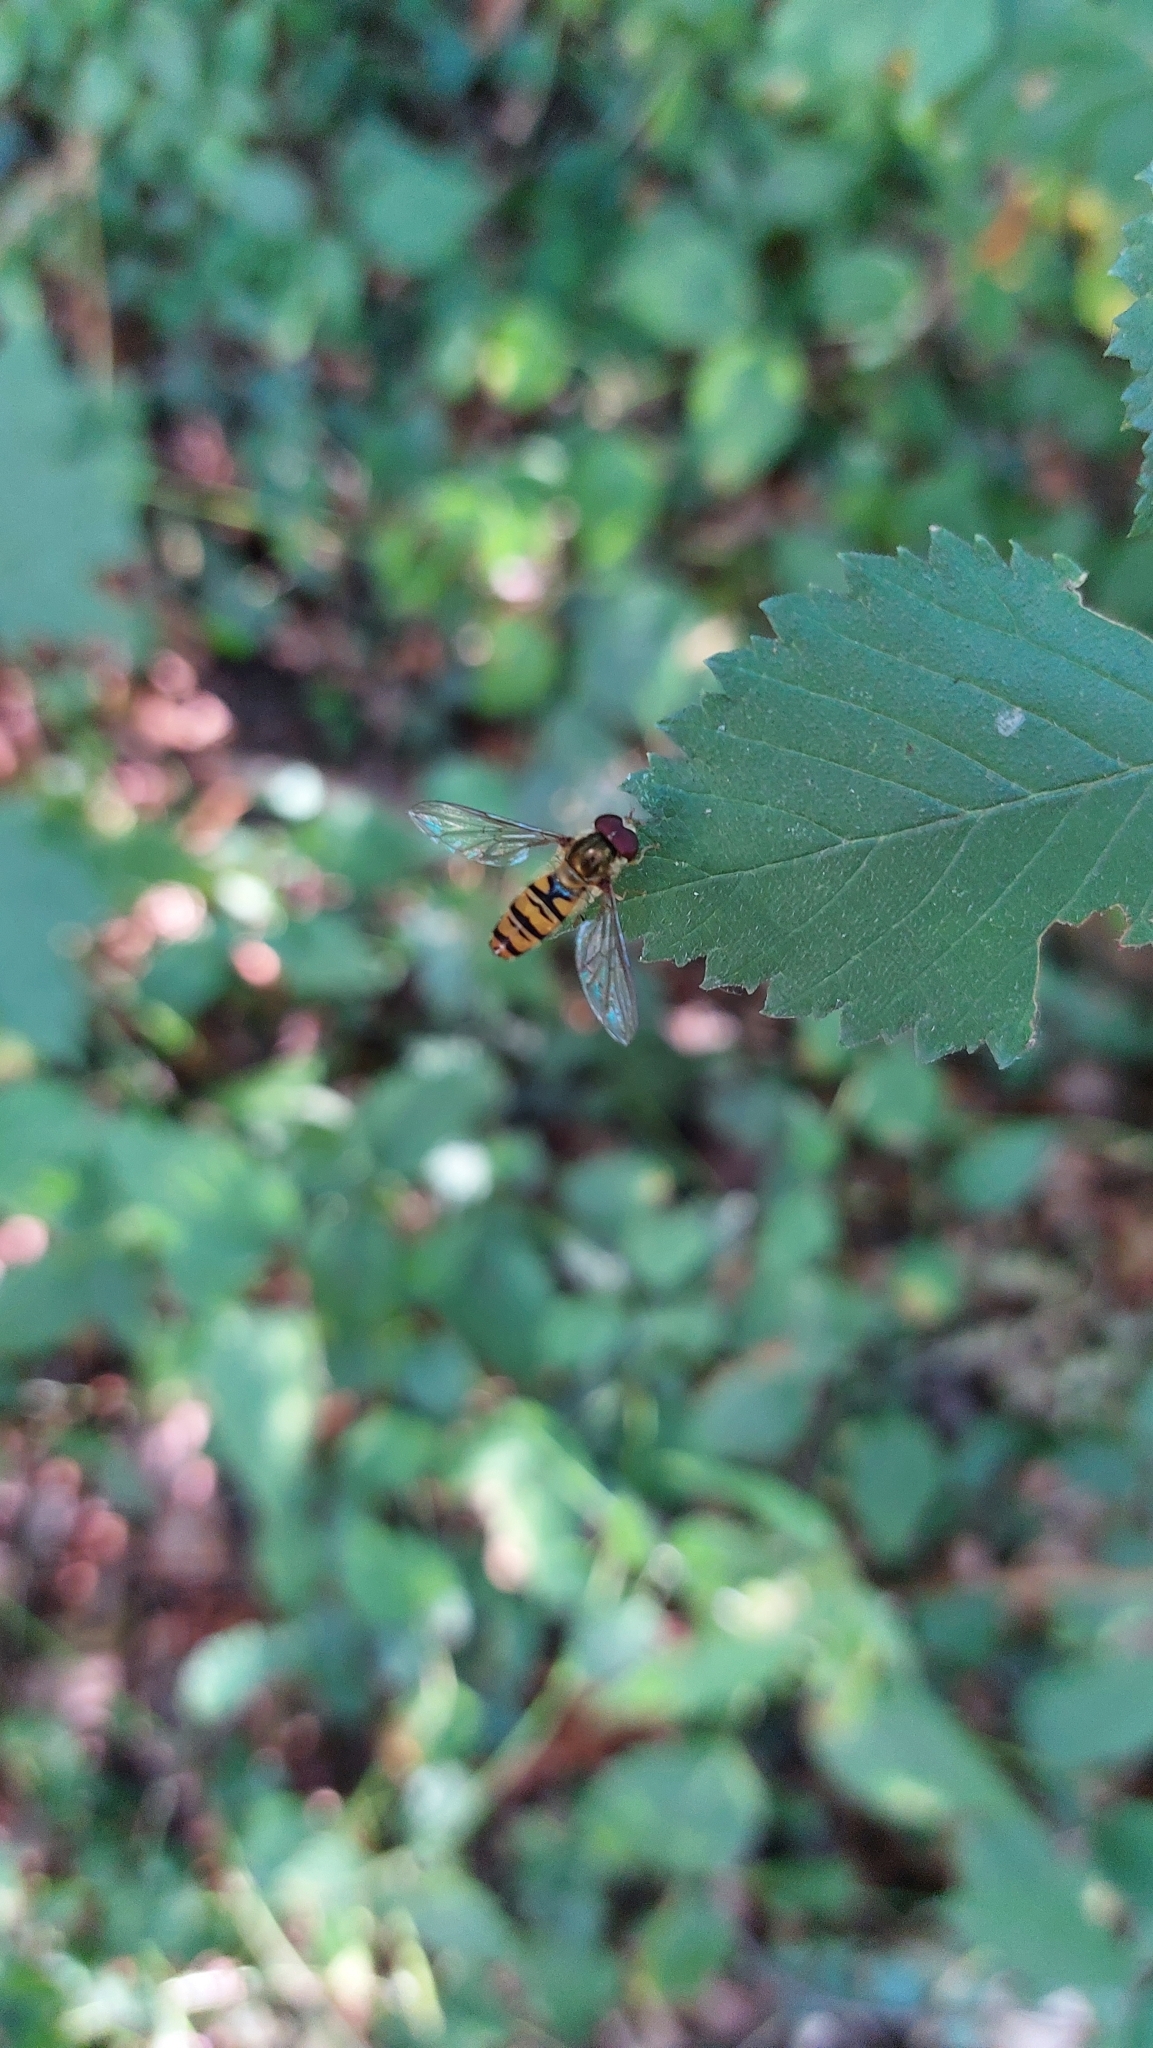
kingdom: Animalia
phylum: Arthropoda
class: Insecta
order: Diptera
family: Syrphidae
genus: Episyrphus
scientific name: Episyrphus balteatus
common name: Marmalade hoverfly
